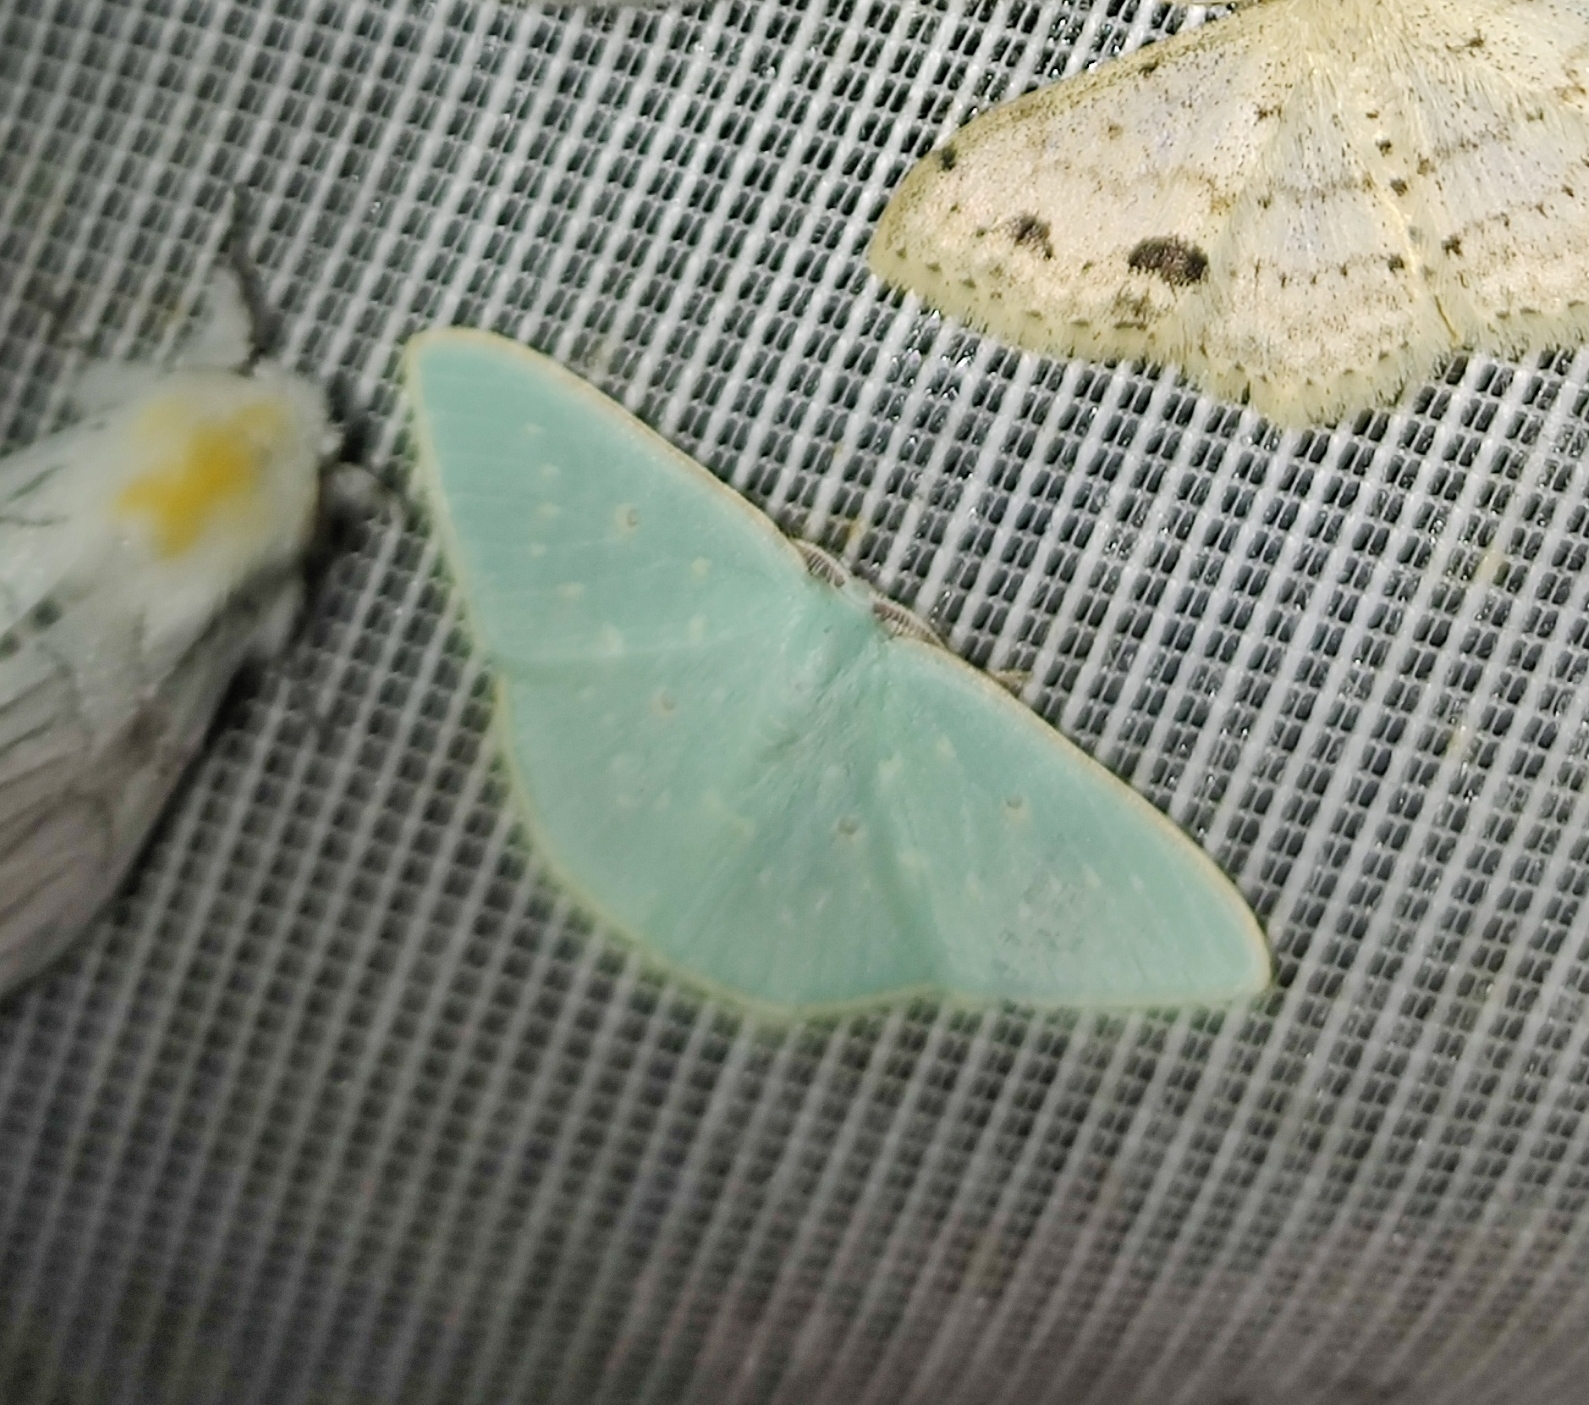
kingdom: Animalia
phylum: Arthropoda
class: Insecta
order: Lepidoptera
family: Geometridae
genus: Comostola
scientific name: Comostola leucosticta
